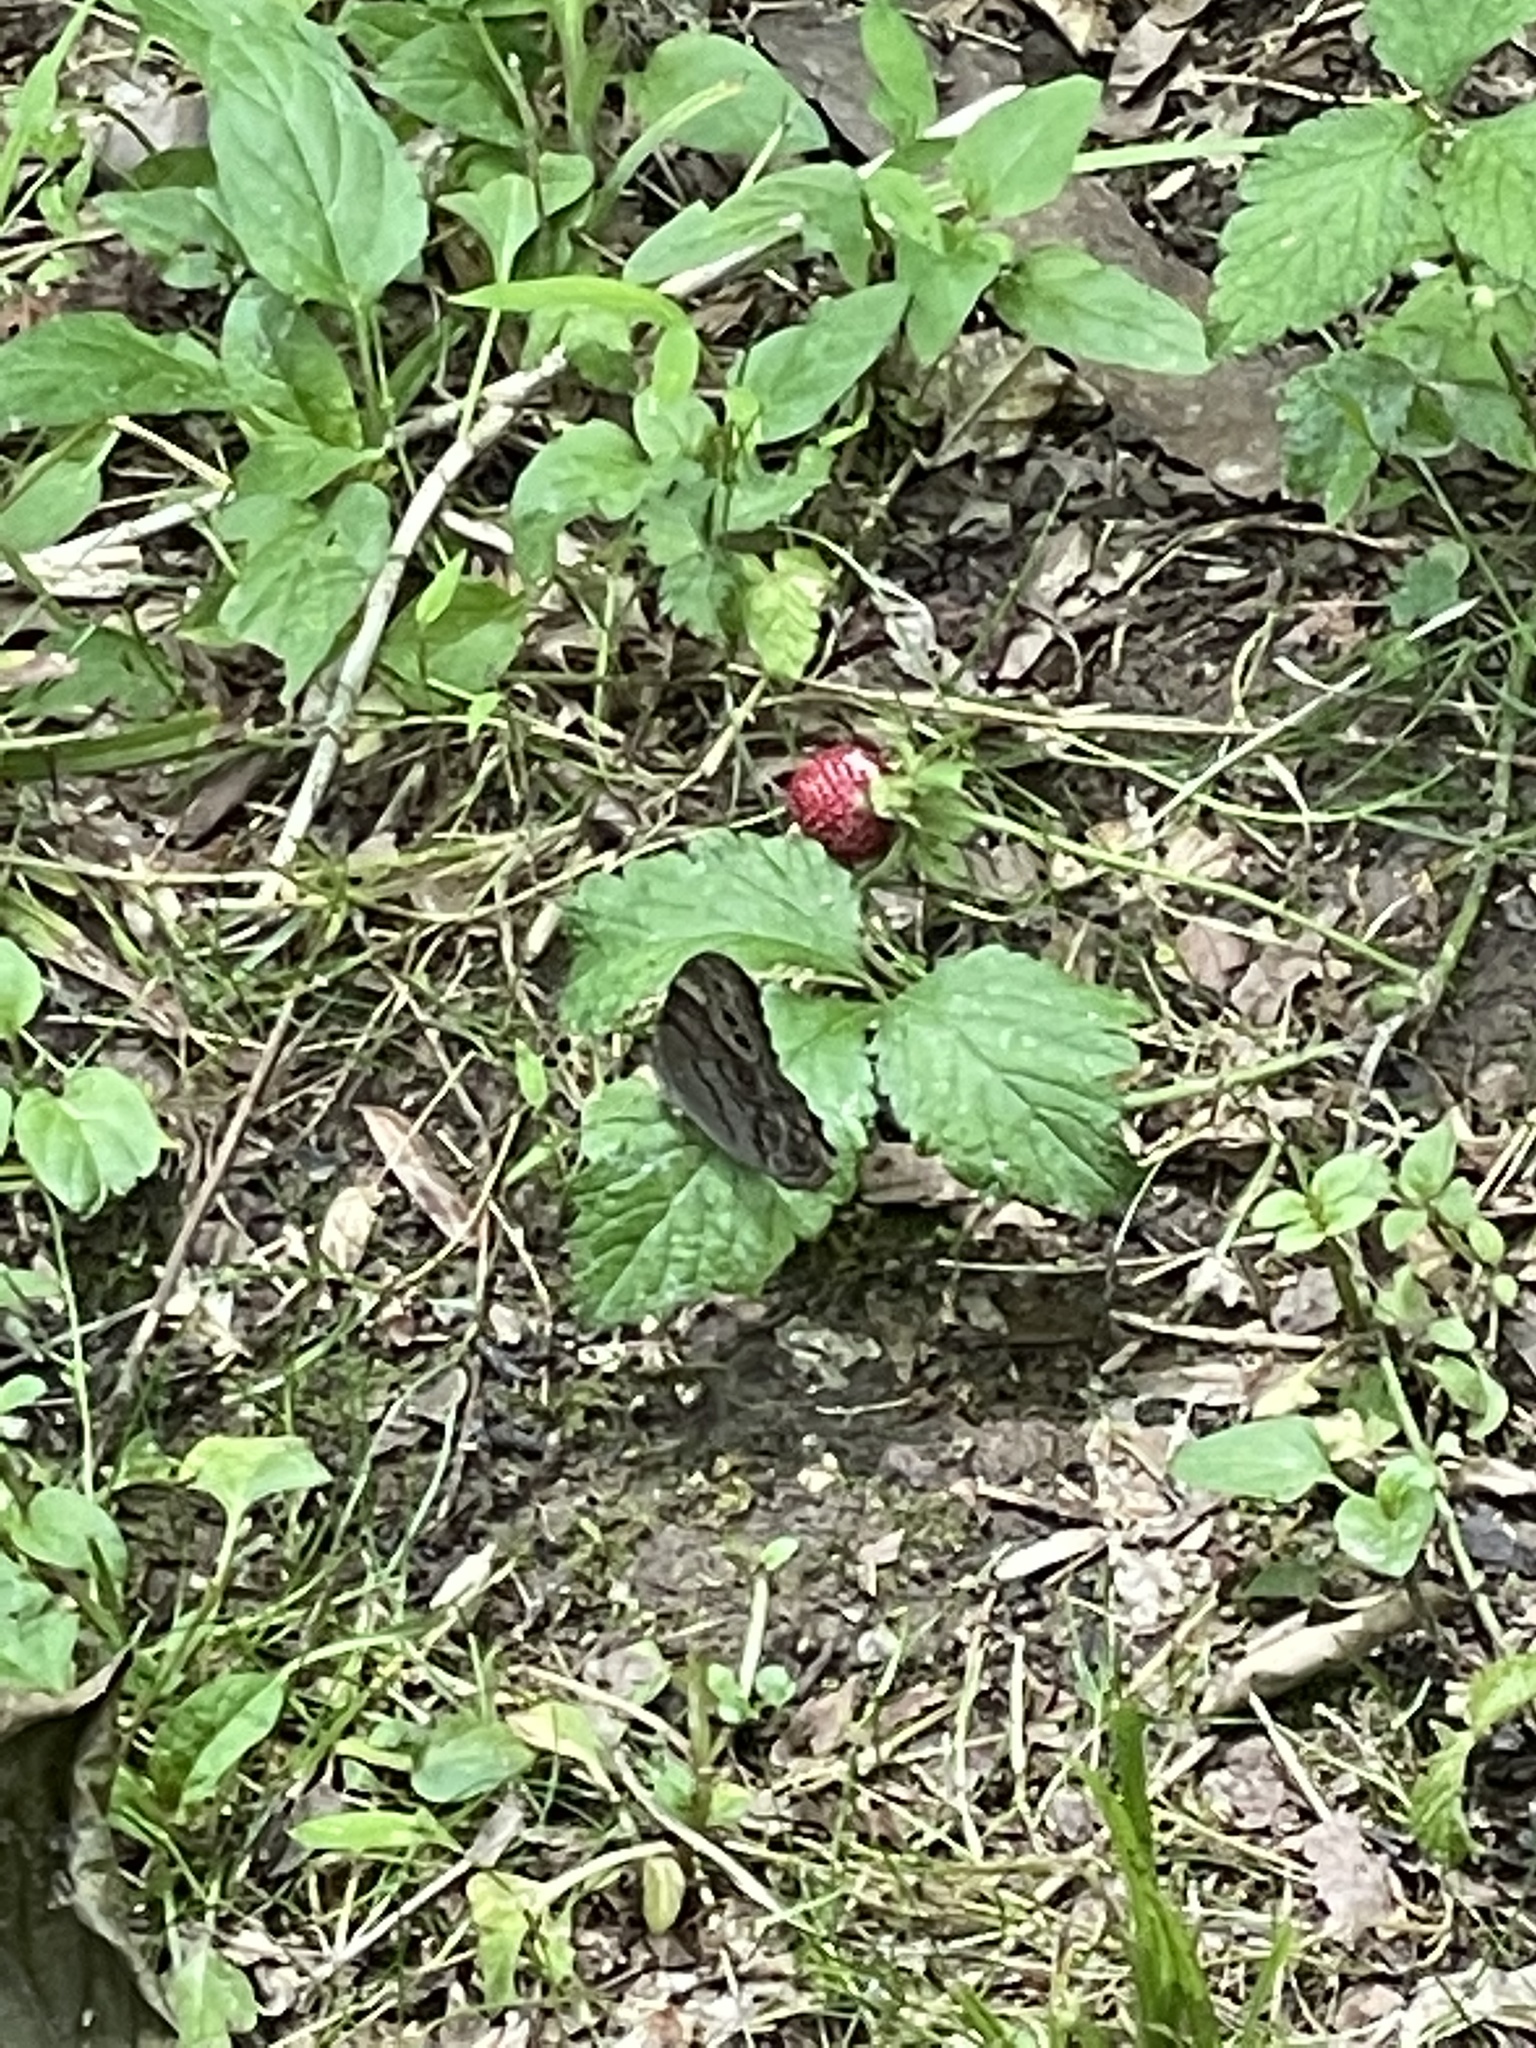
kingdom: Animalia
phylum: Arthropoda
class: Insecta
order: Lepidoptera
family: Nymphalidae
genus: Lethe
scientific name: Lethe anthedon
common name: Northern pearly-eye
